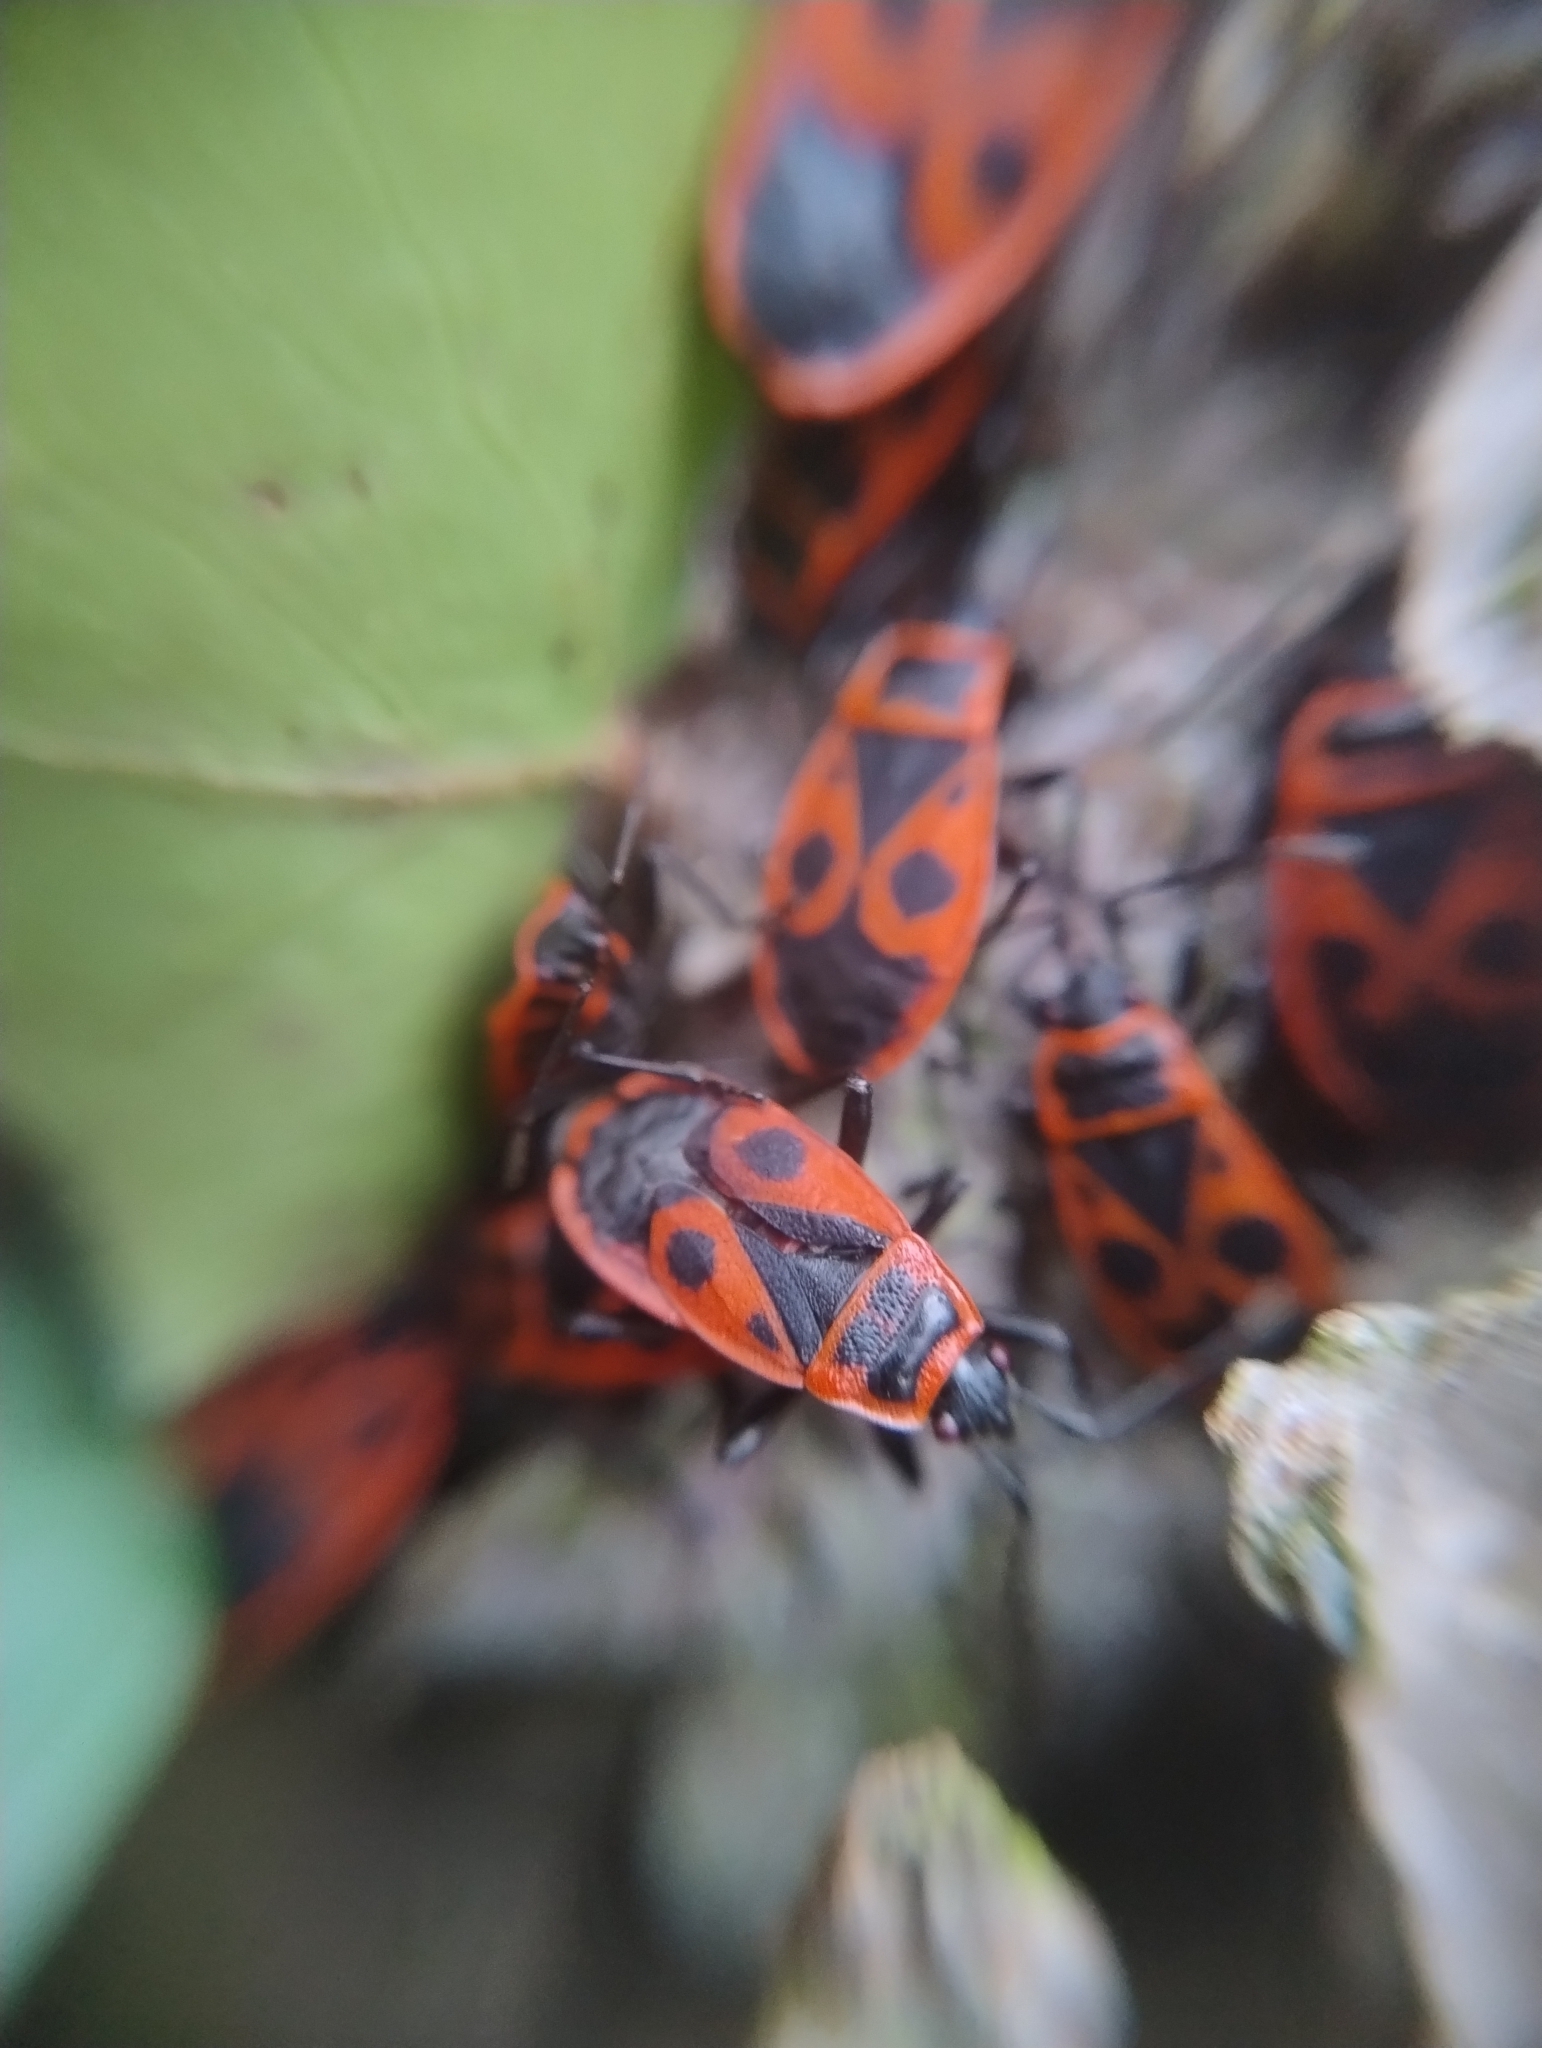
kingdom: Animalia
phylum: Arthropoda
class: Insecta
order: Hemiptera
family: Pyrrhocoridae
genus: Pyrrhocoris
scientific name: Pyrrhocoris apterus
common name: Firebug
